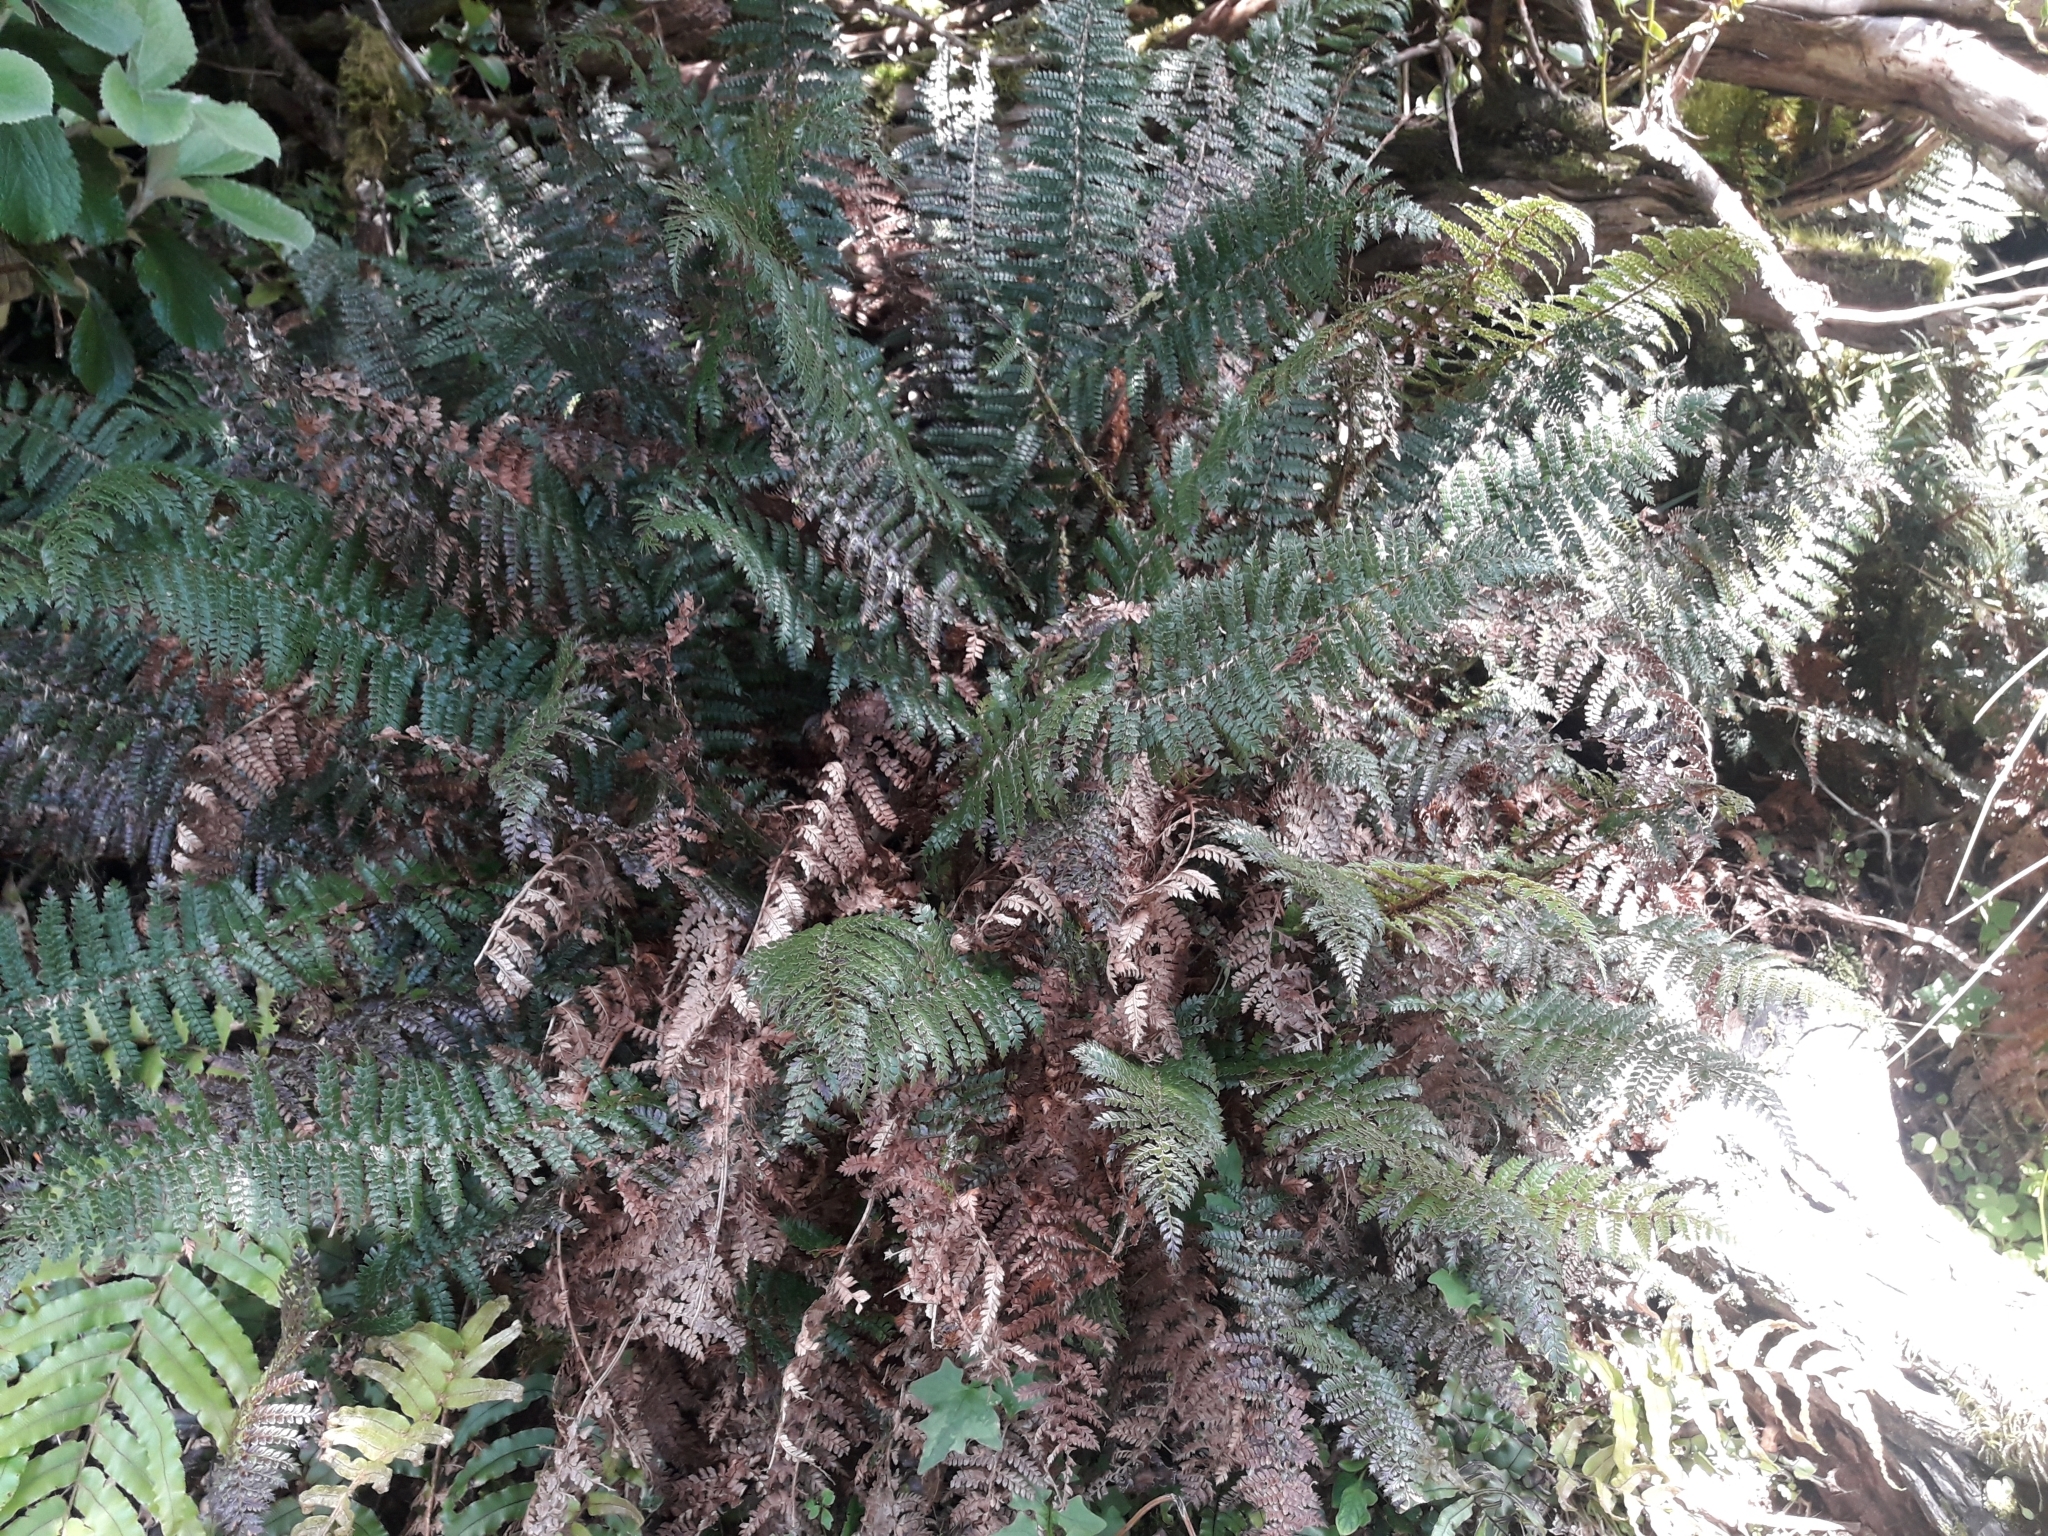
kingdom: Plantae
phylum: Tracheophyta
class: Polypodiopsida
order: Polypodiales
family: Dryopteridaceae
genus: Polystichum
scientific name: Polystichum vestitum
